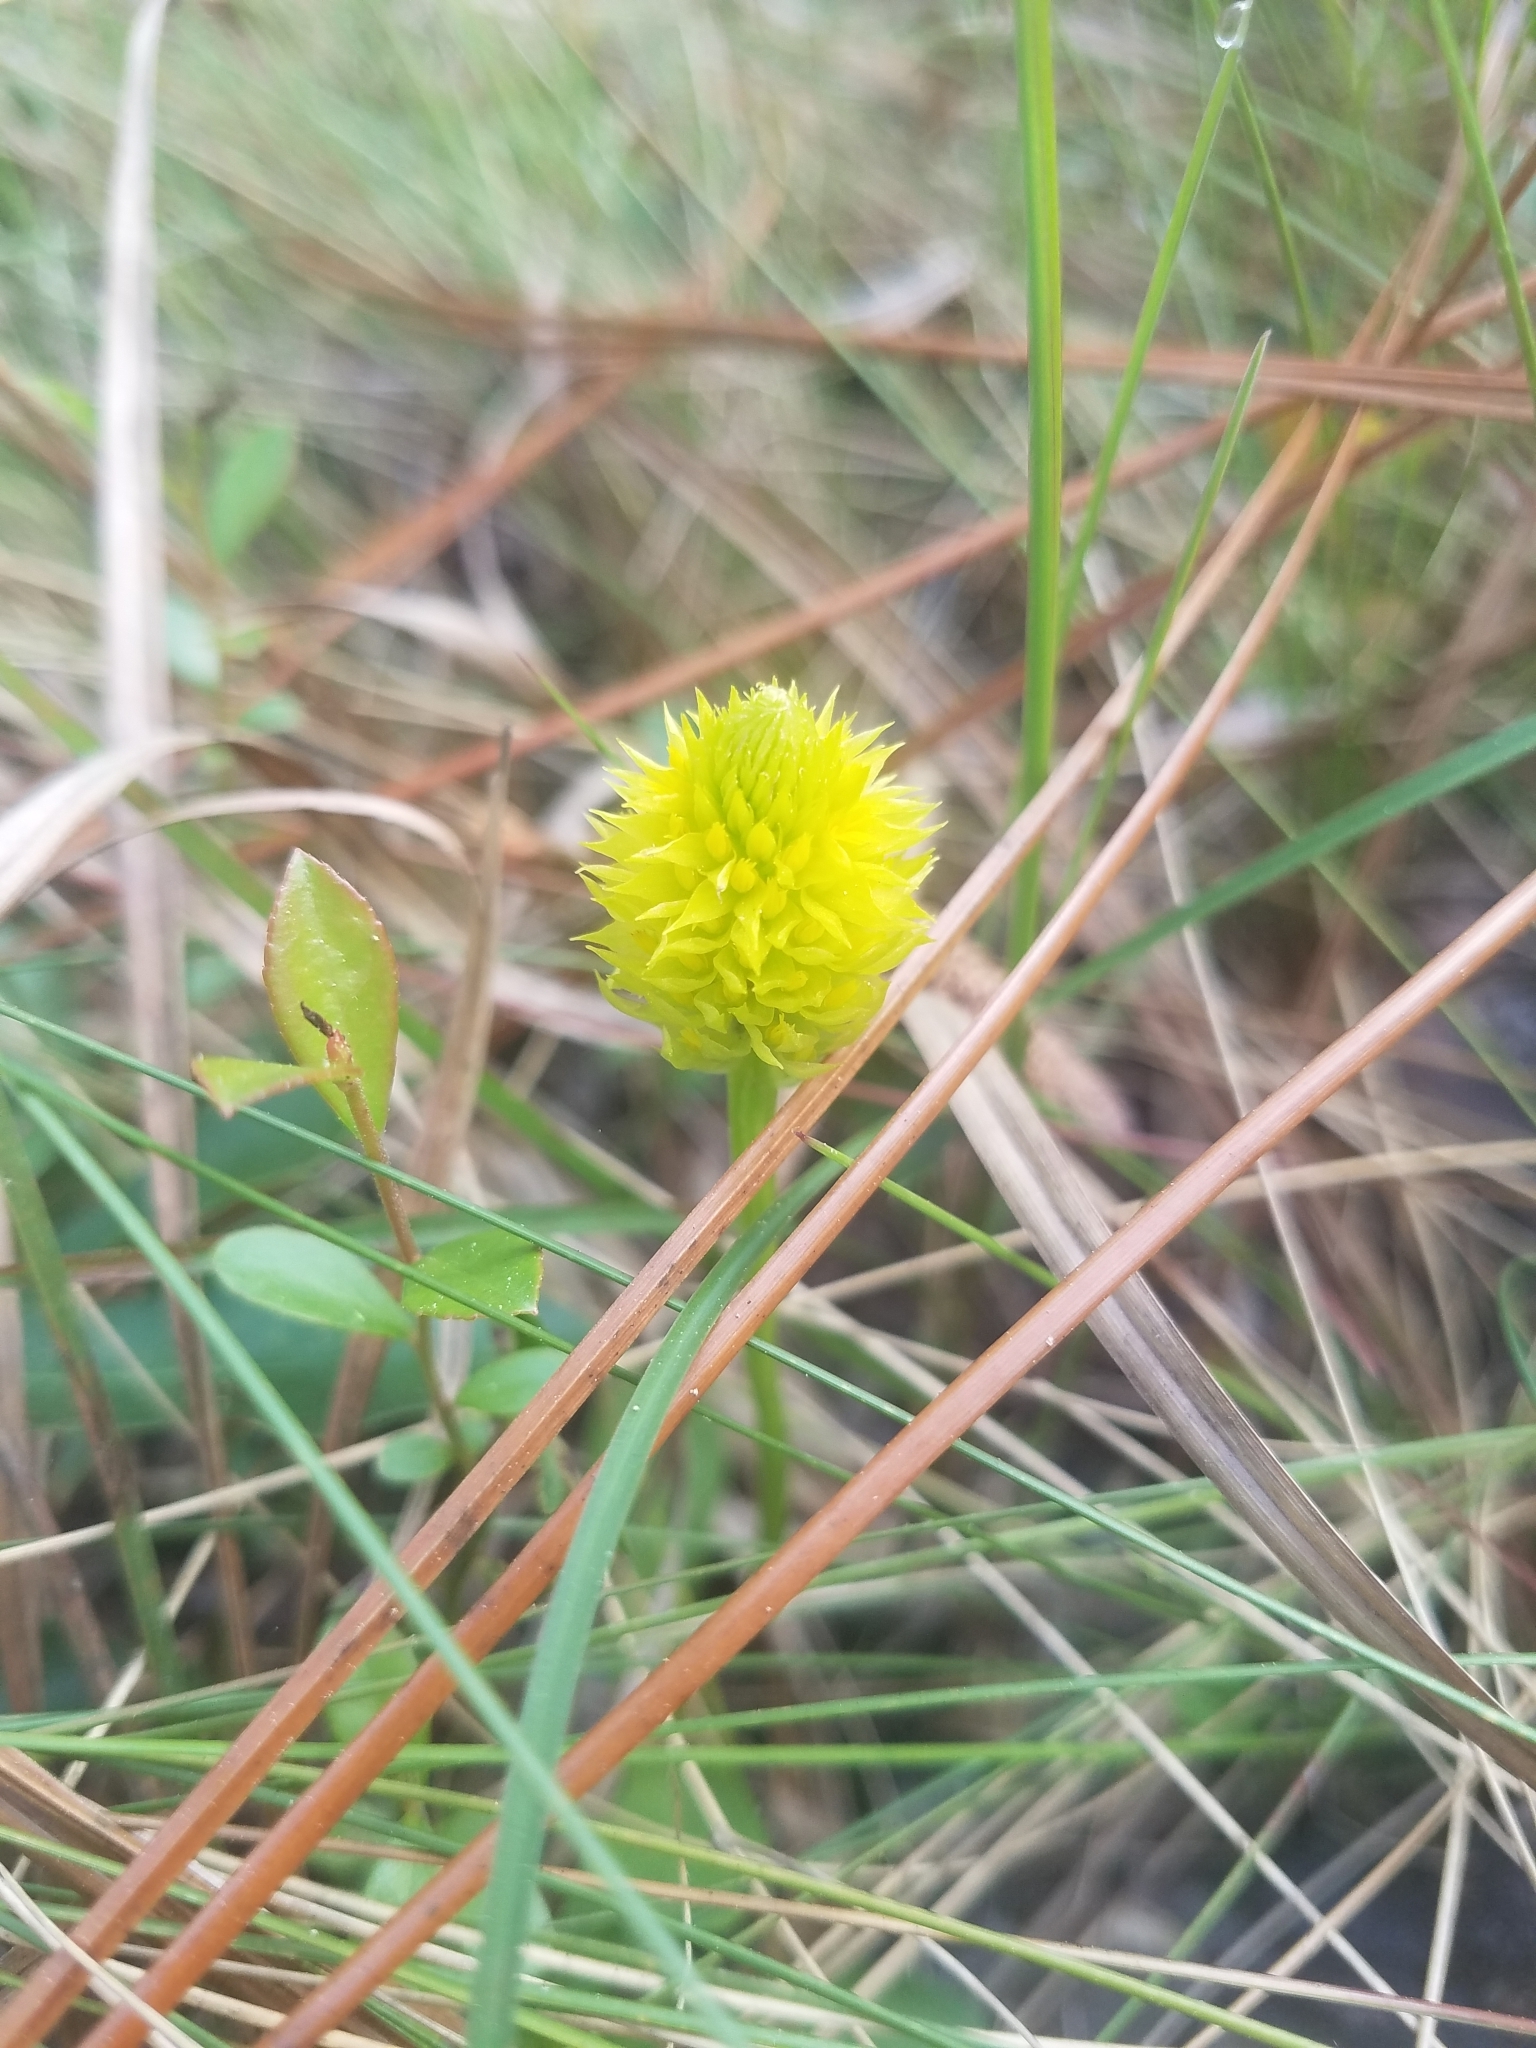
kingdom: Plantae
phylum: Tracheophyta
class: Magnoliopsida
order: Fabales
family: Polygalaceae
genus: Polygala
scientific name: Polygala nana
